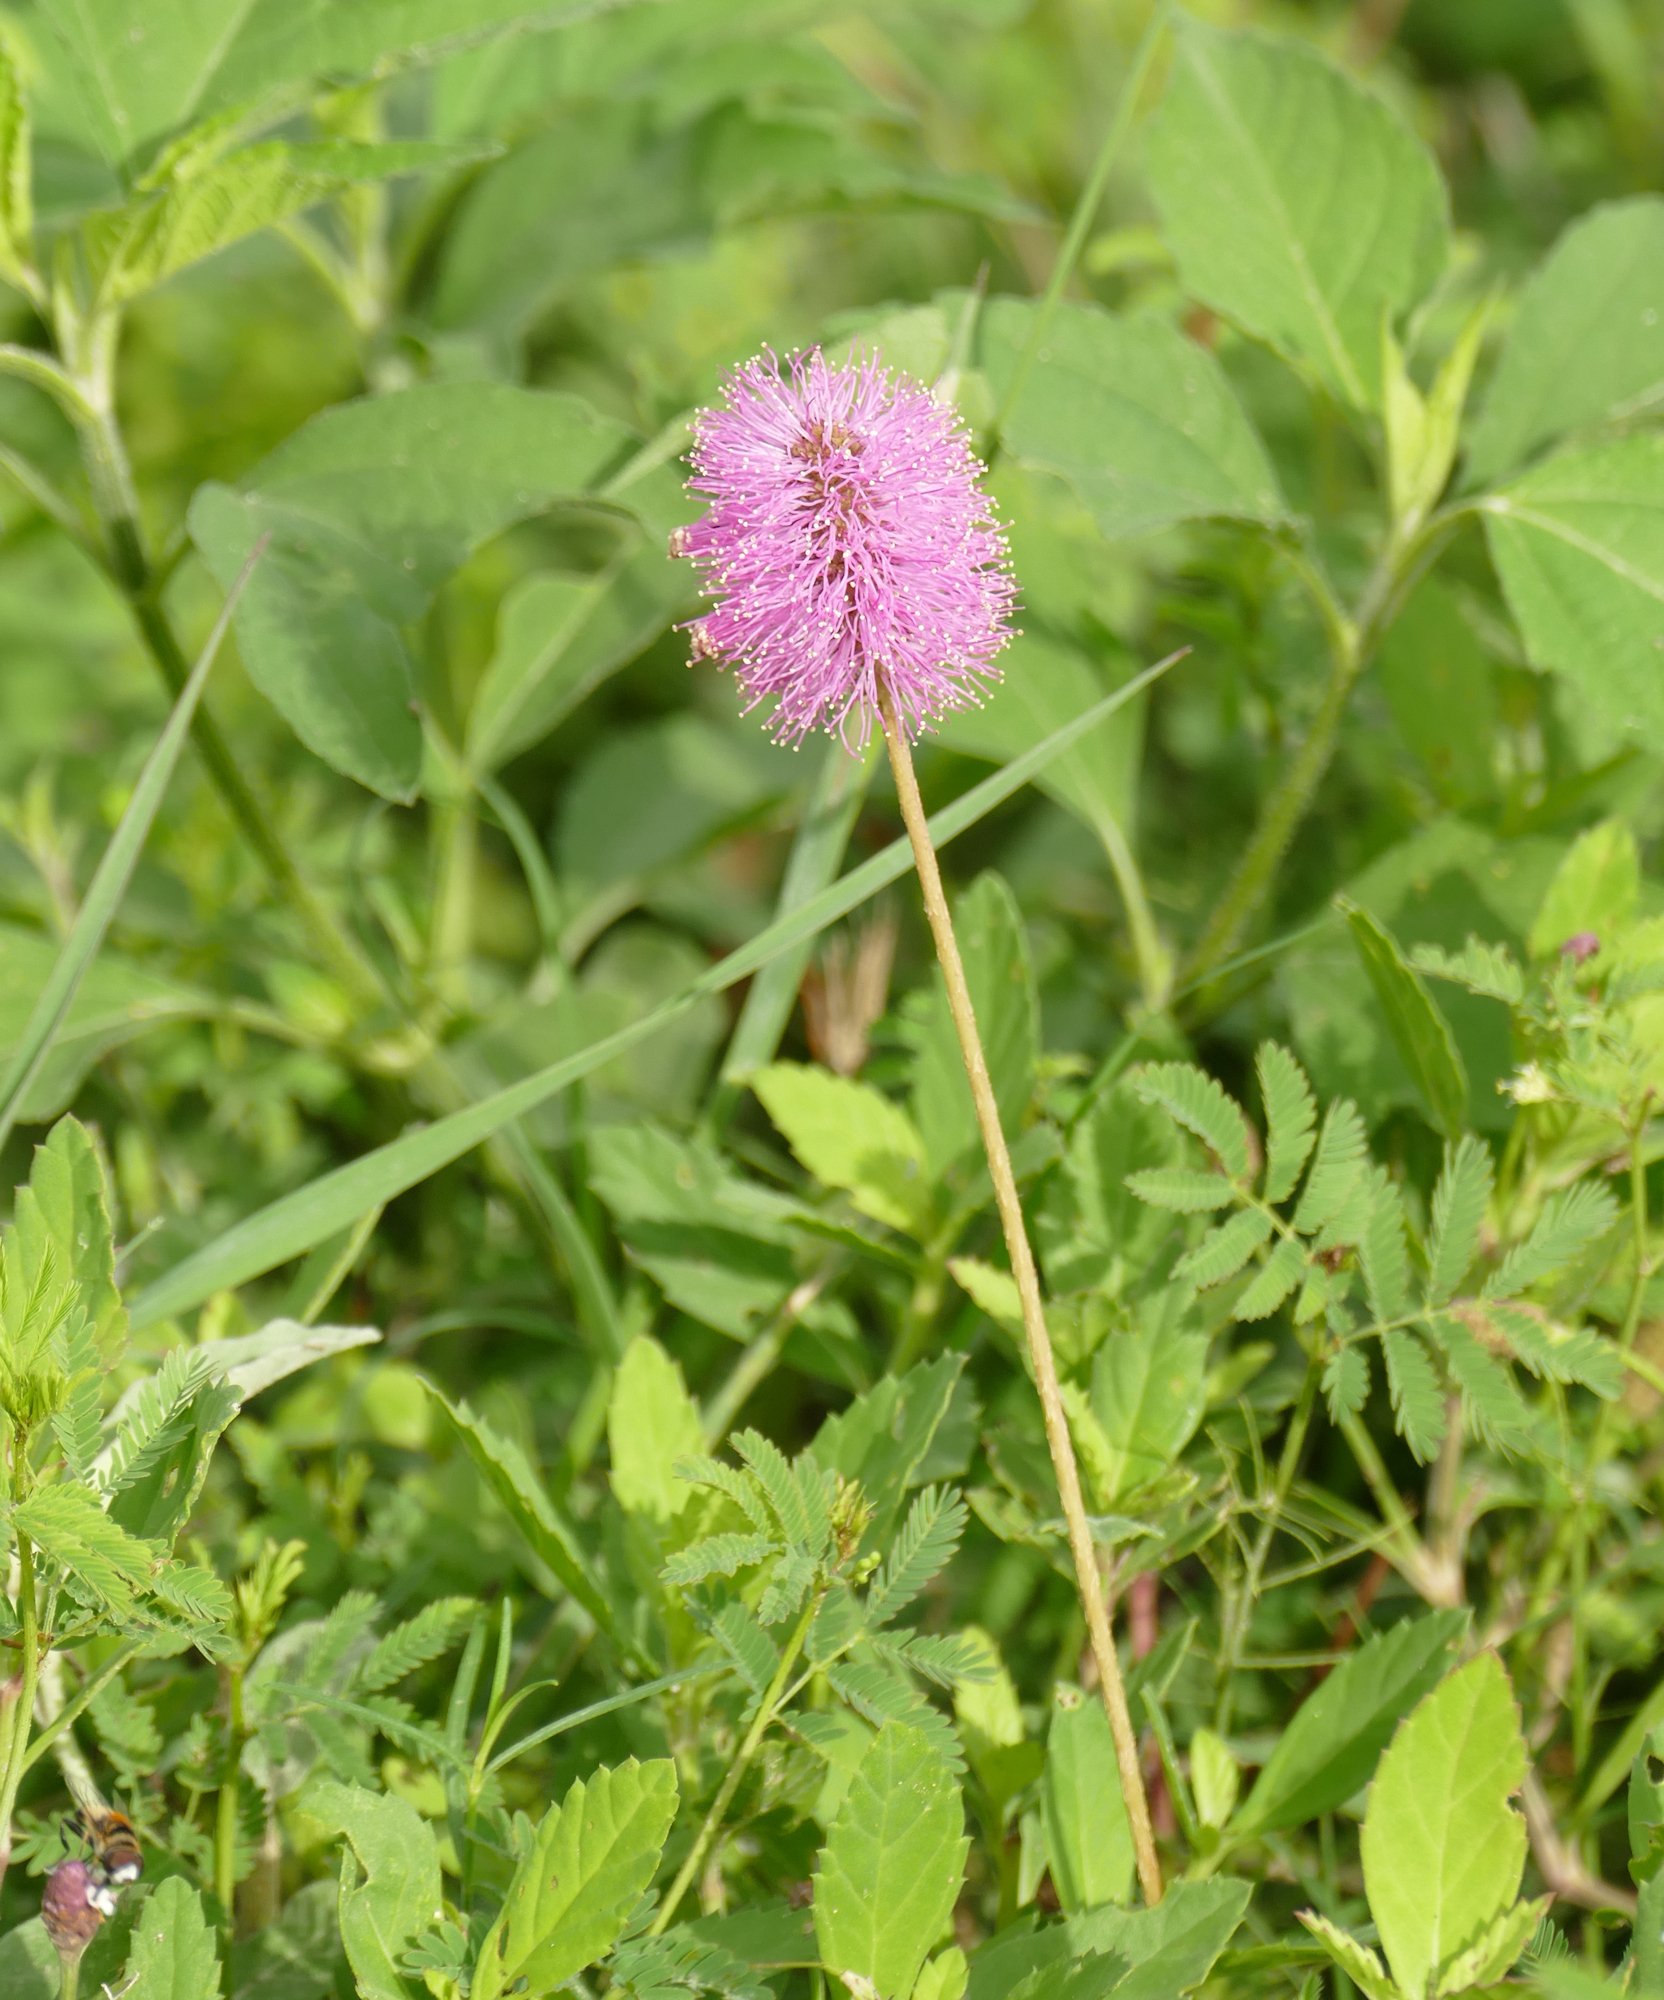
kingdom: Plantae
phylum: Tracheophyta
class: Magnoliopsida
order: Fabales
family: Fabaceae
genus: Mimosa
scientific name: Mimosa strigillosa
